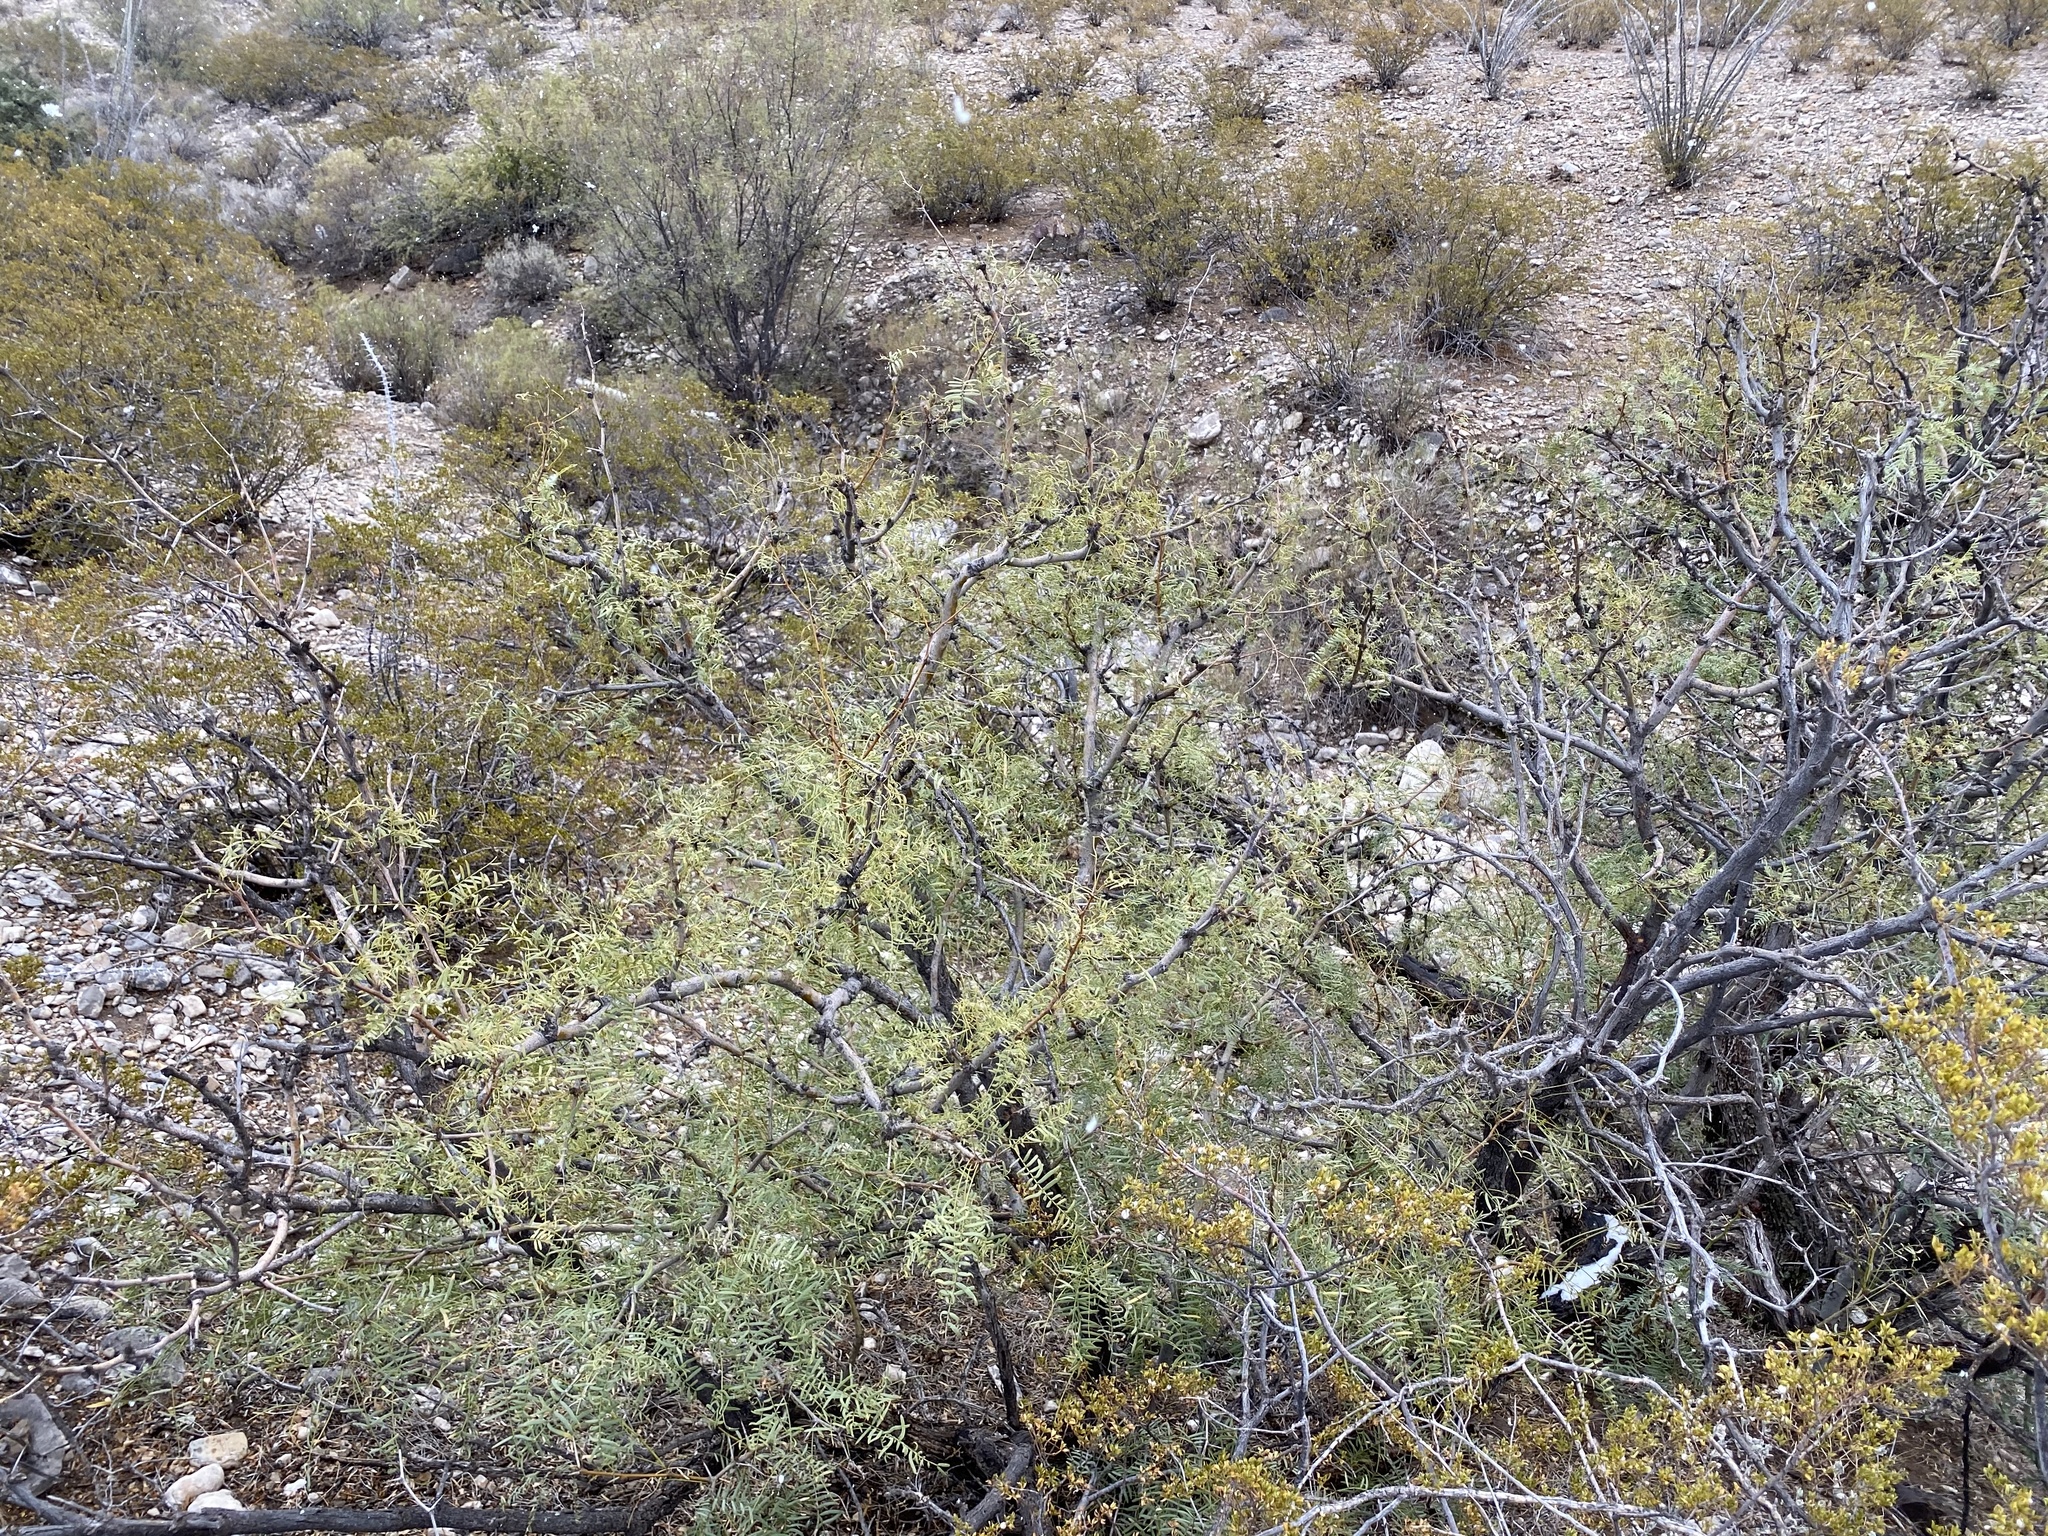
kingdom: Plantae
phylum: Tracheophyta
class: Magnoliopsida
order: Fabales
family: Fabaceae
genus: Prosopis
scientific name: Prosopis glandulosa
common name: Honey mesquite
